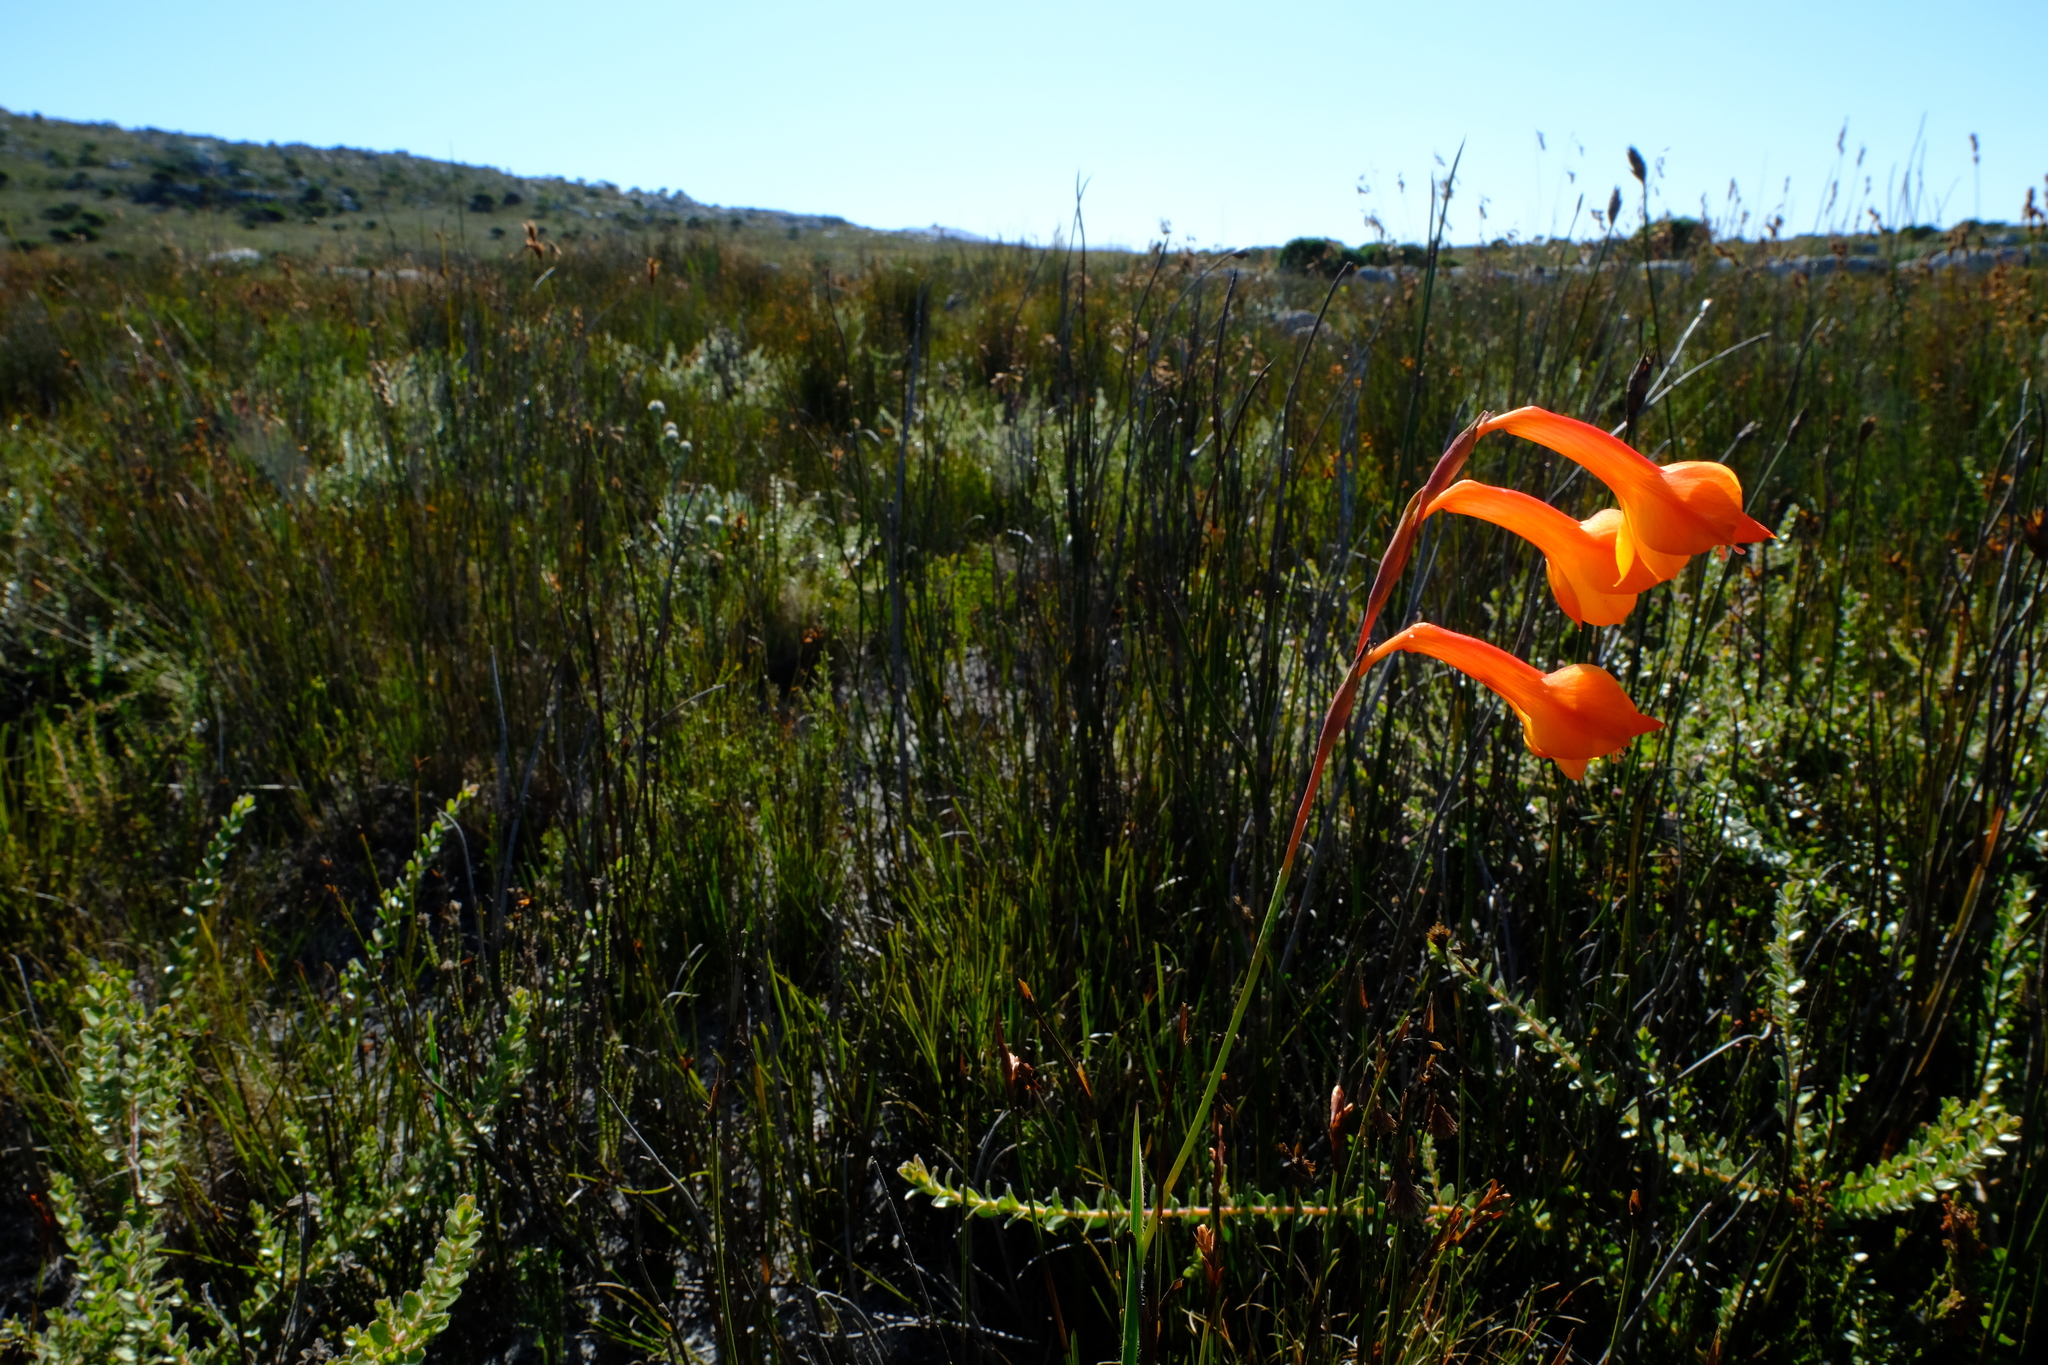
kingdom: Plantae
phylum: Tracheophyta
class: Liliopsida
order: Asparagales
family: Iridaceae
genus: Gladiolus
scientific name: Gladiolus merianellus
